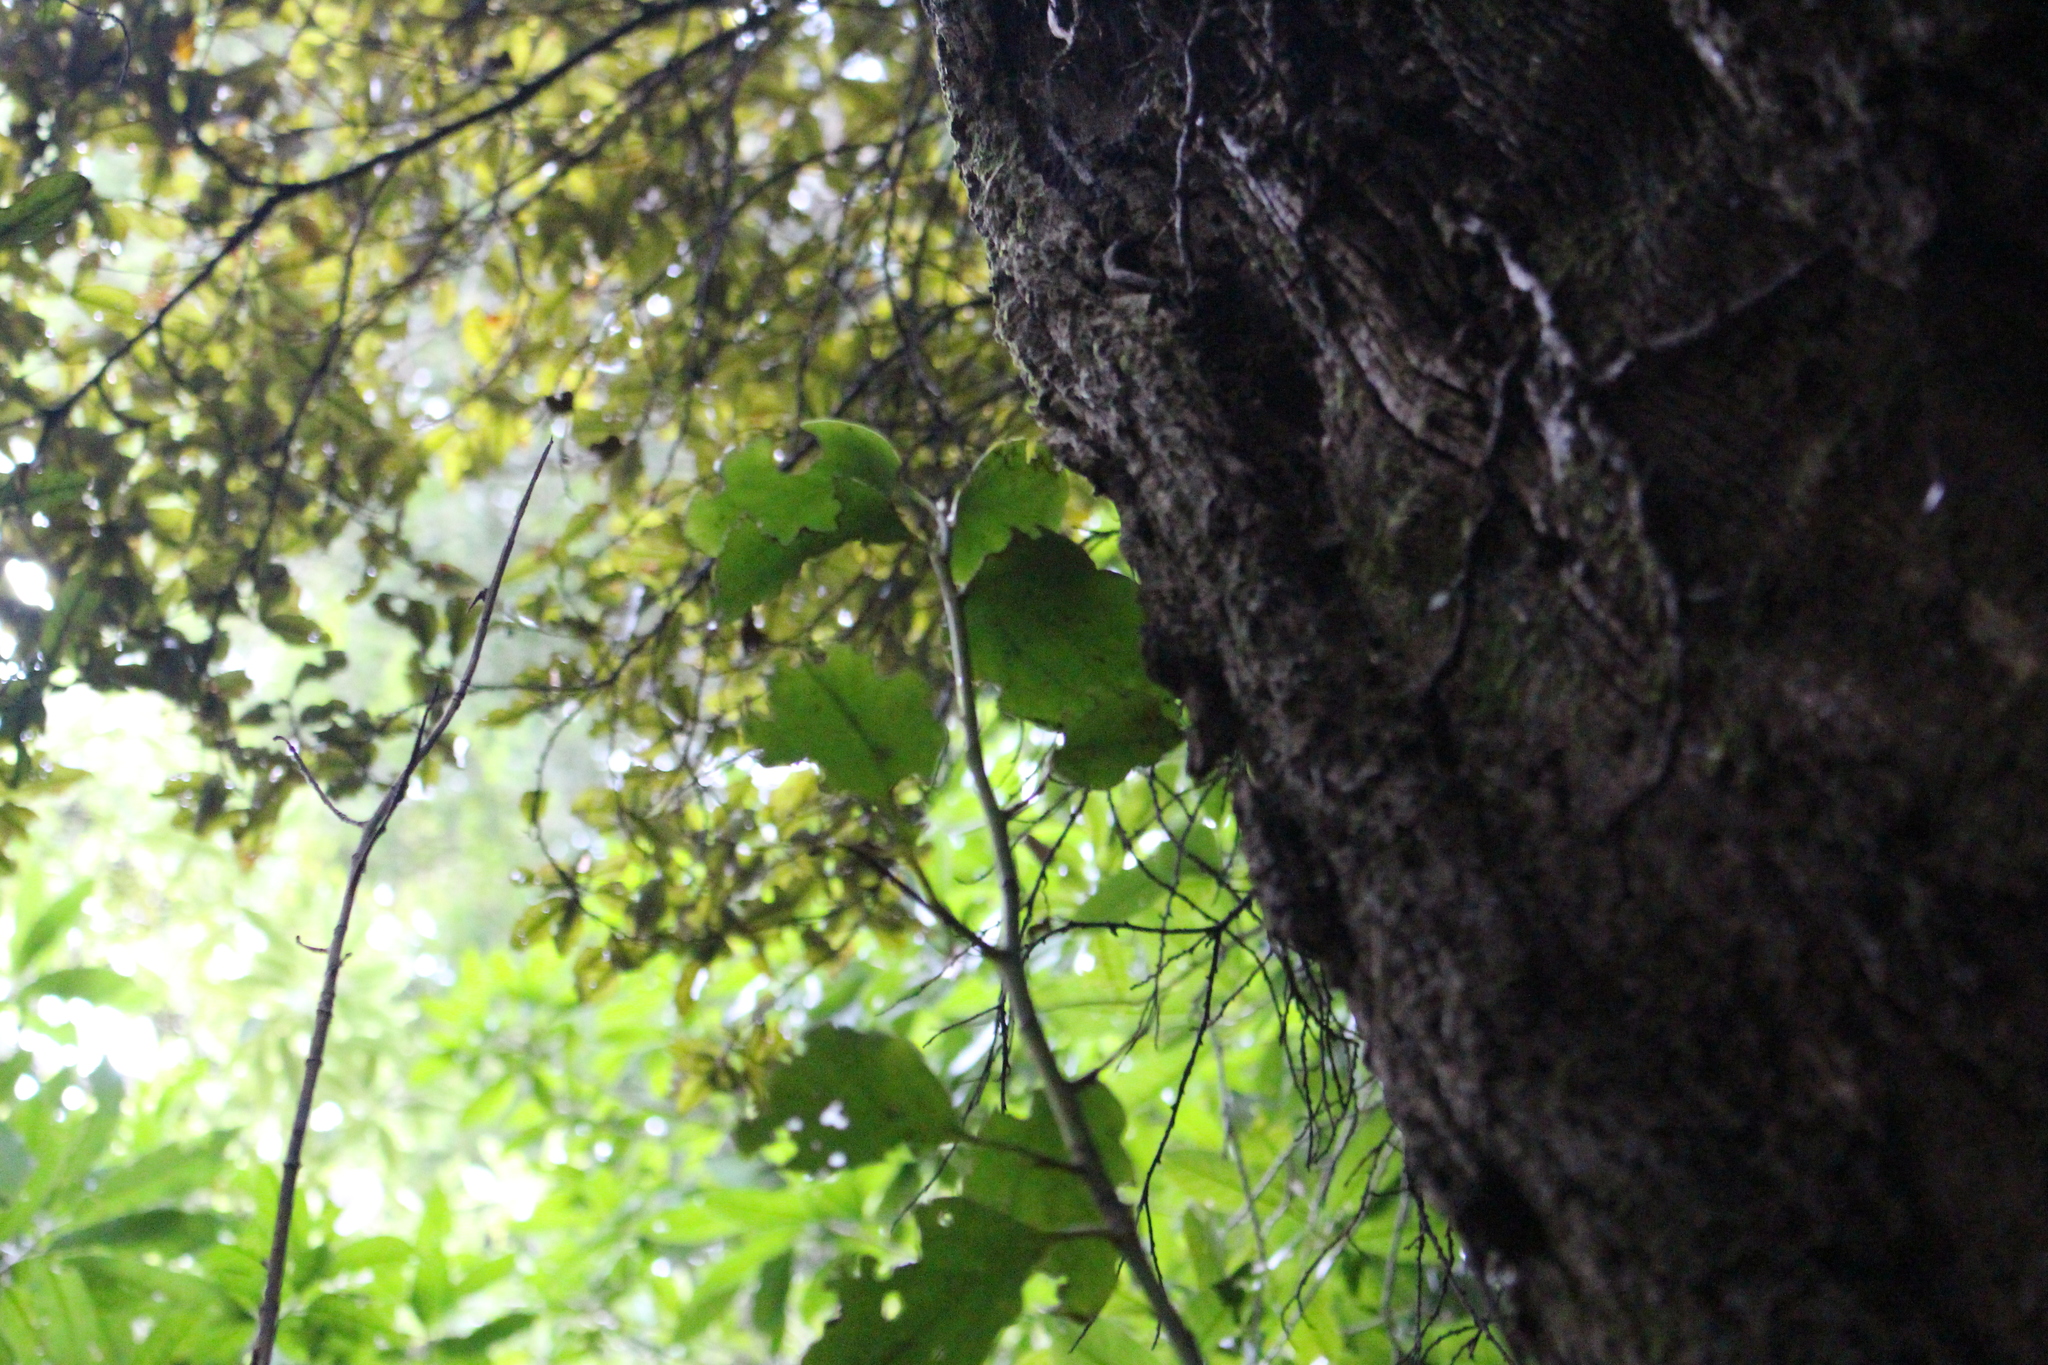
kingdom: Plantae
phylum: Tracheophyta
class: Magnoliopsida
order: Apiales
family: Griseliniaceae
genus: Griselinia
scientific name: Griselinia littoralis
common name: New zealand broadleaf
